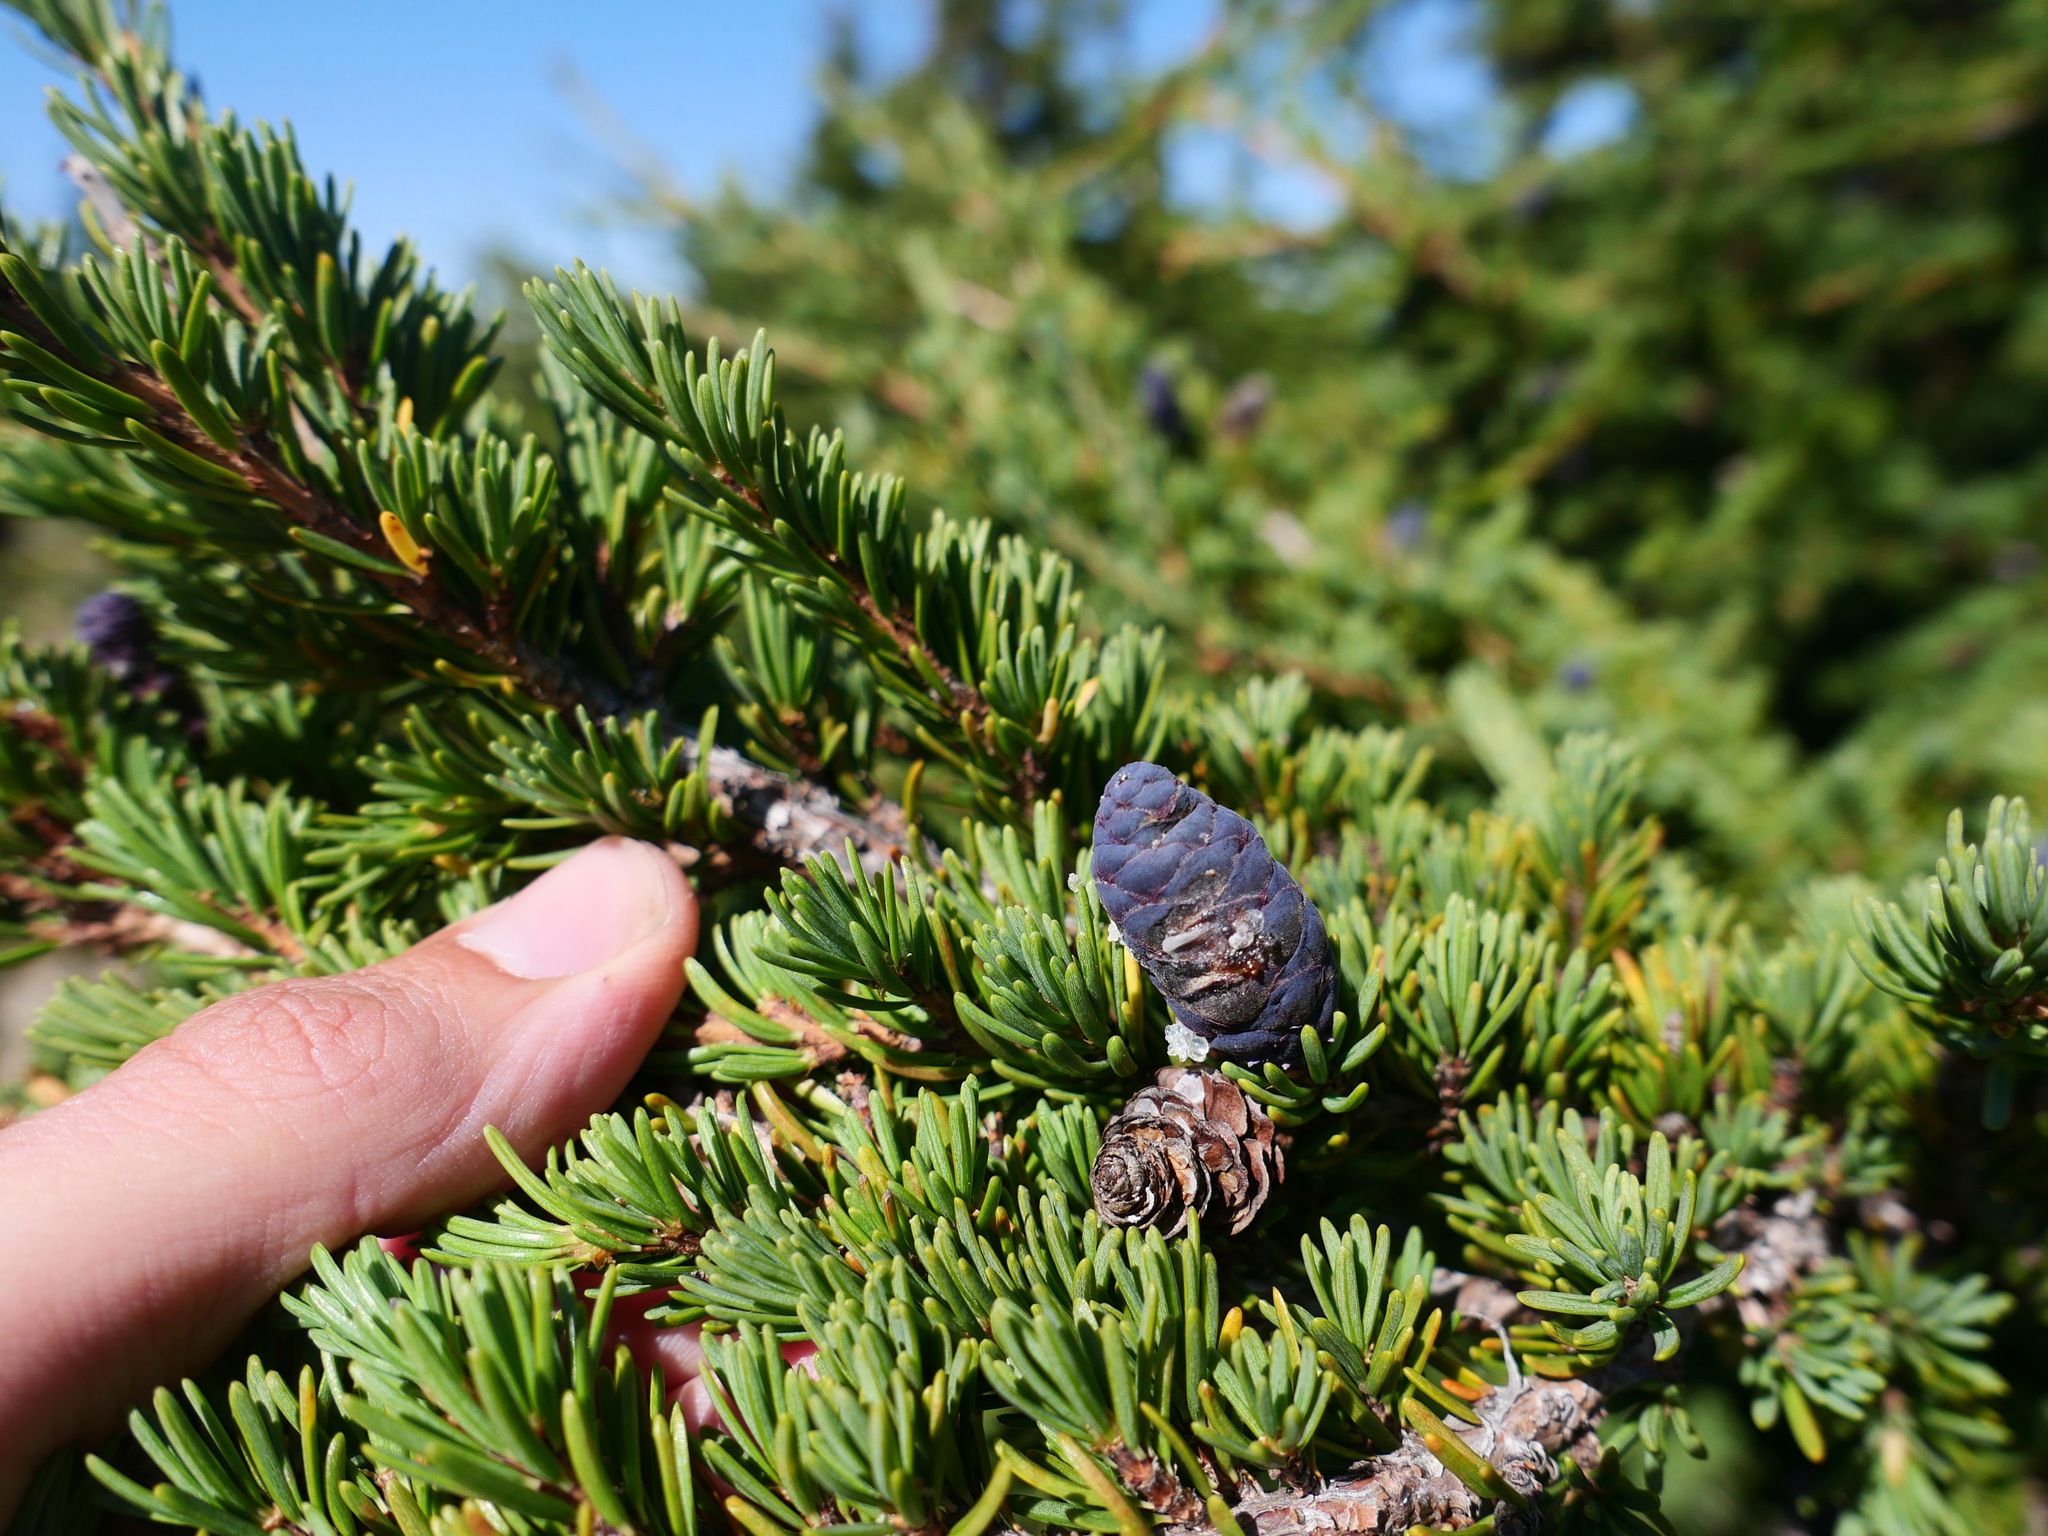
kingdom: Plantae
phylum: Tracheophyta
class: Pinopsida
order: Pinales
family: Pinaceae
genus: Tsuga
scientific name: Tsuga mertensiana
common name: Mountain hemlock
